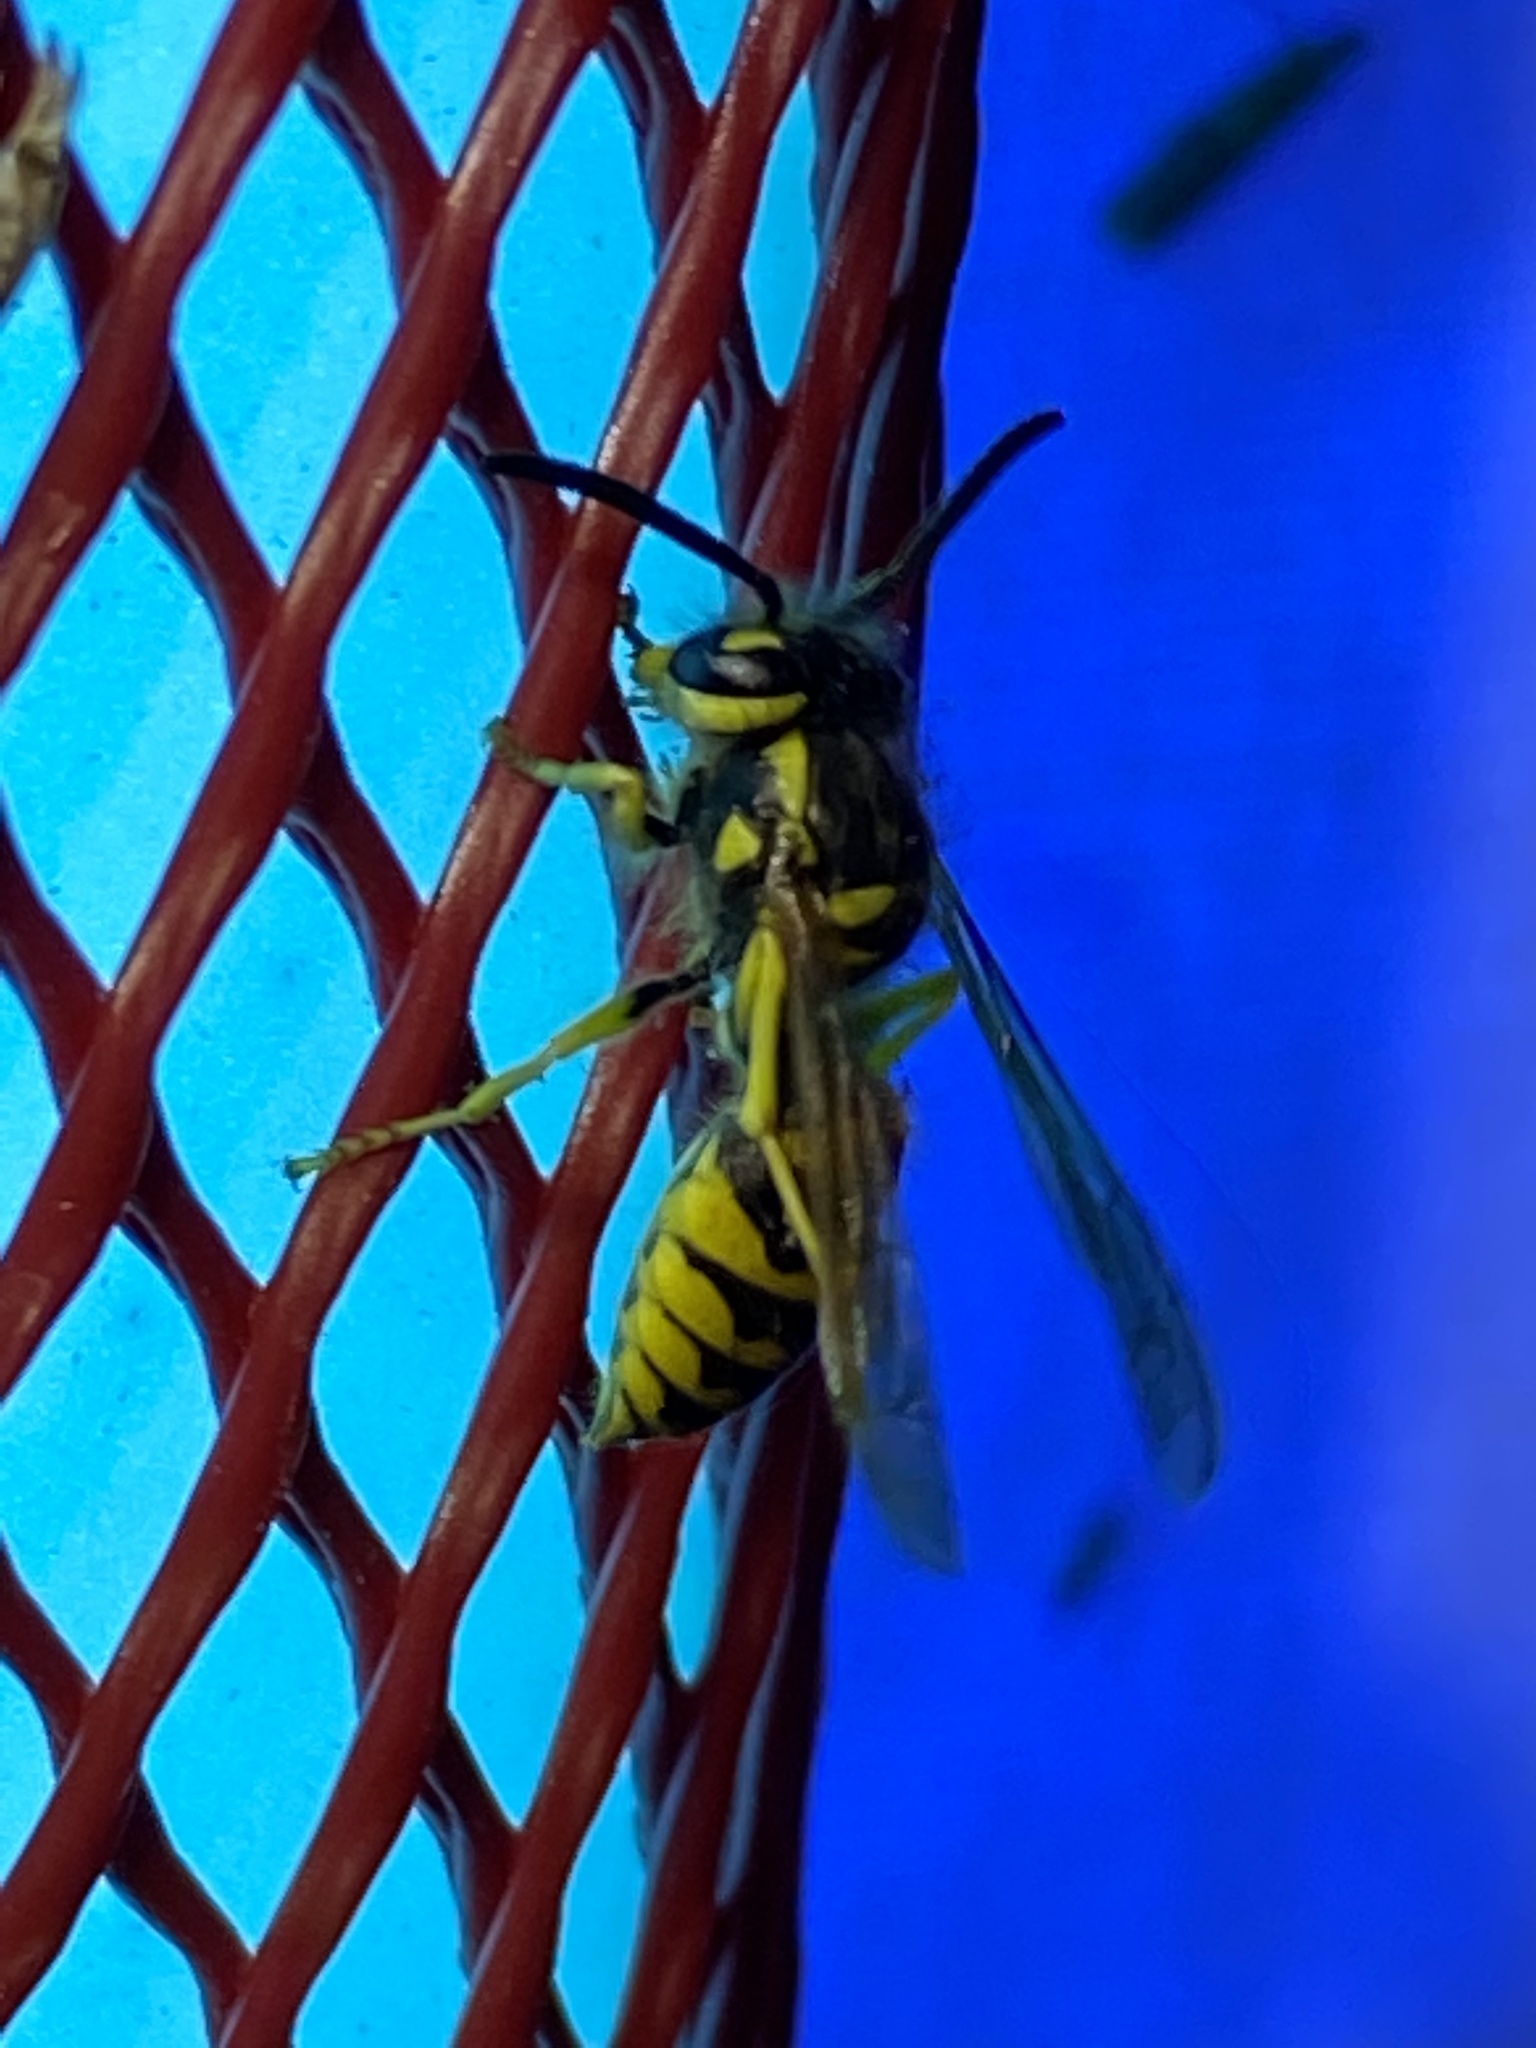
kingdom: Animalia
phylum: Arthropoda
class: Insecta
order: Hymenoptera
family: Vespidae
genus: Vespula
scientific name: Vespula
